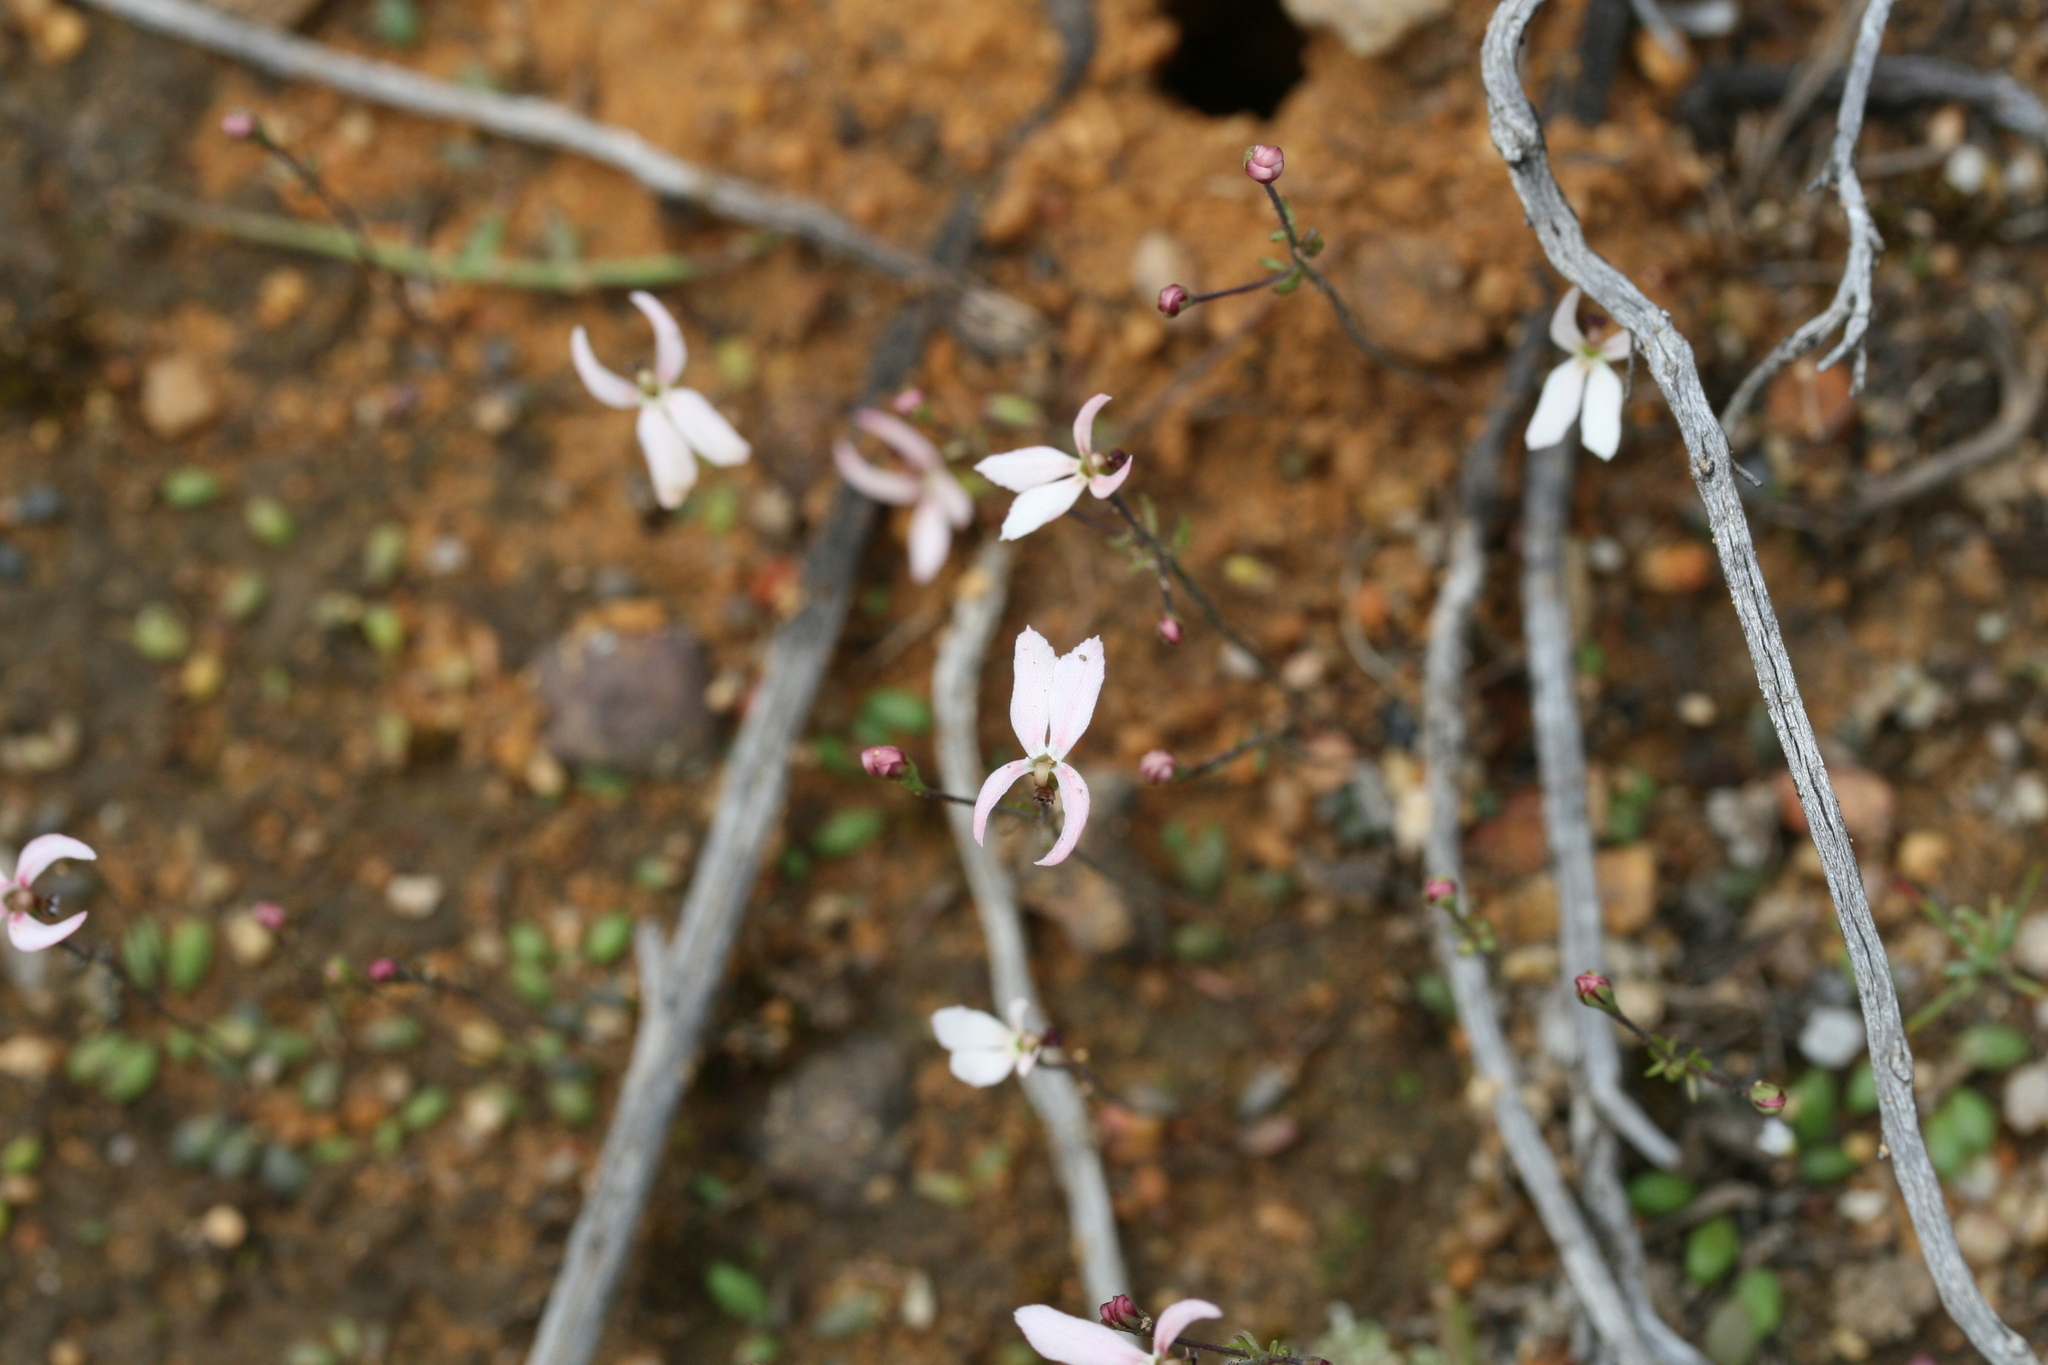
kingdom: Plantae
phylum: Tracheophyta
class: Magnoliopsida
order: Asterales
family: Stylidiaceae
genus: Stylidium
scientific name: Stylidium petiolare
